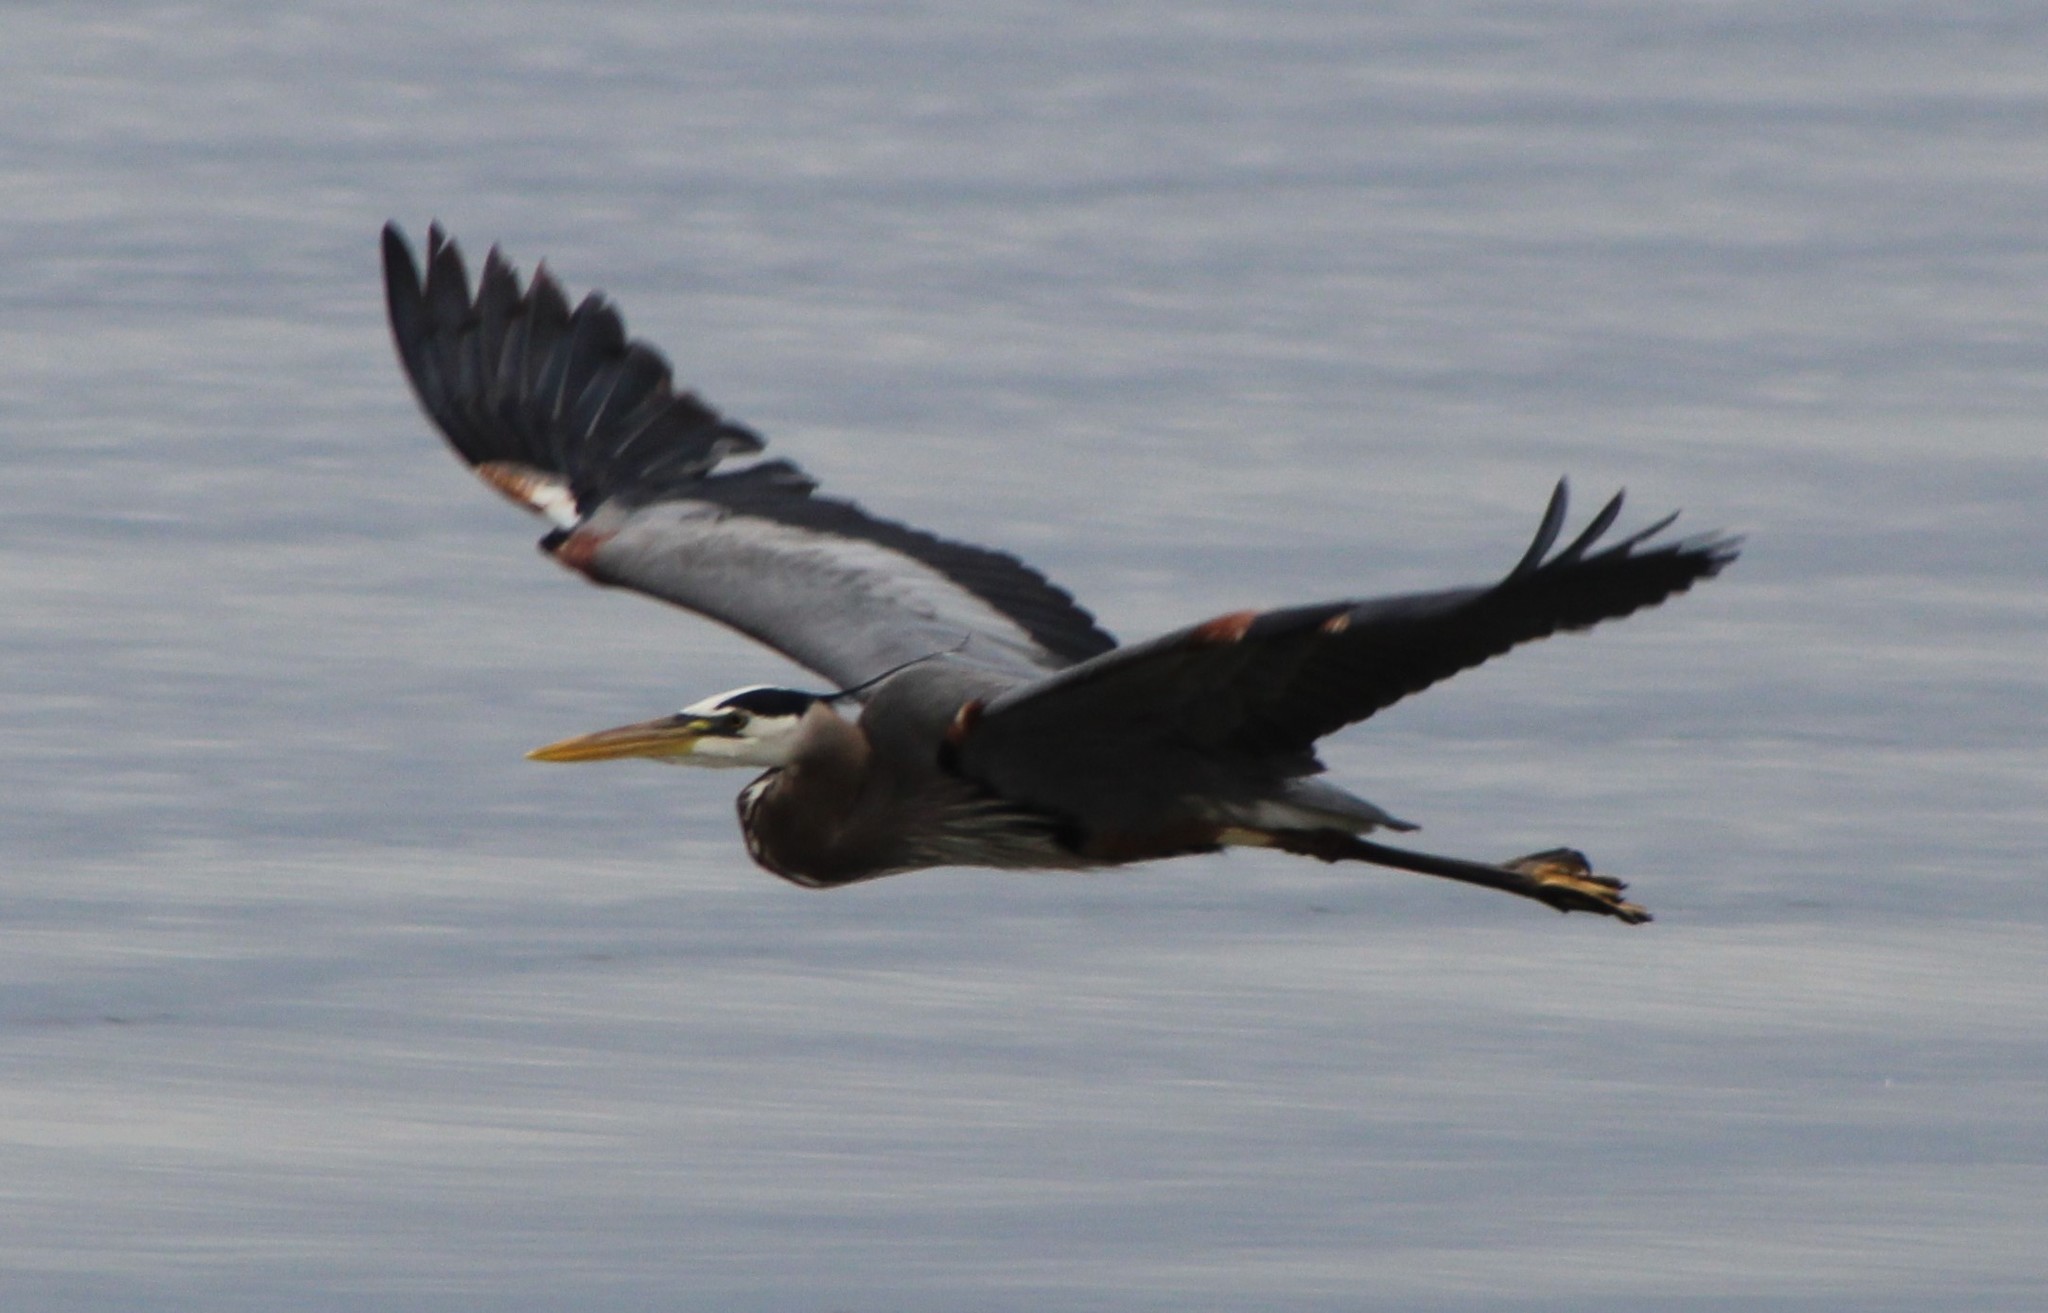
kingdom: Animalia
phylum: Chordata
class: Aves
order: Pelecaniformes
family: Ardeidae
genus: Ardea
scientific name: Ardea herodias
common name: Great blue heron
